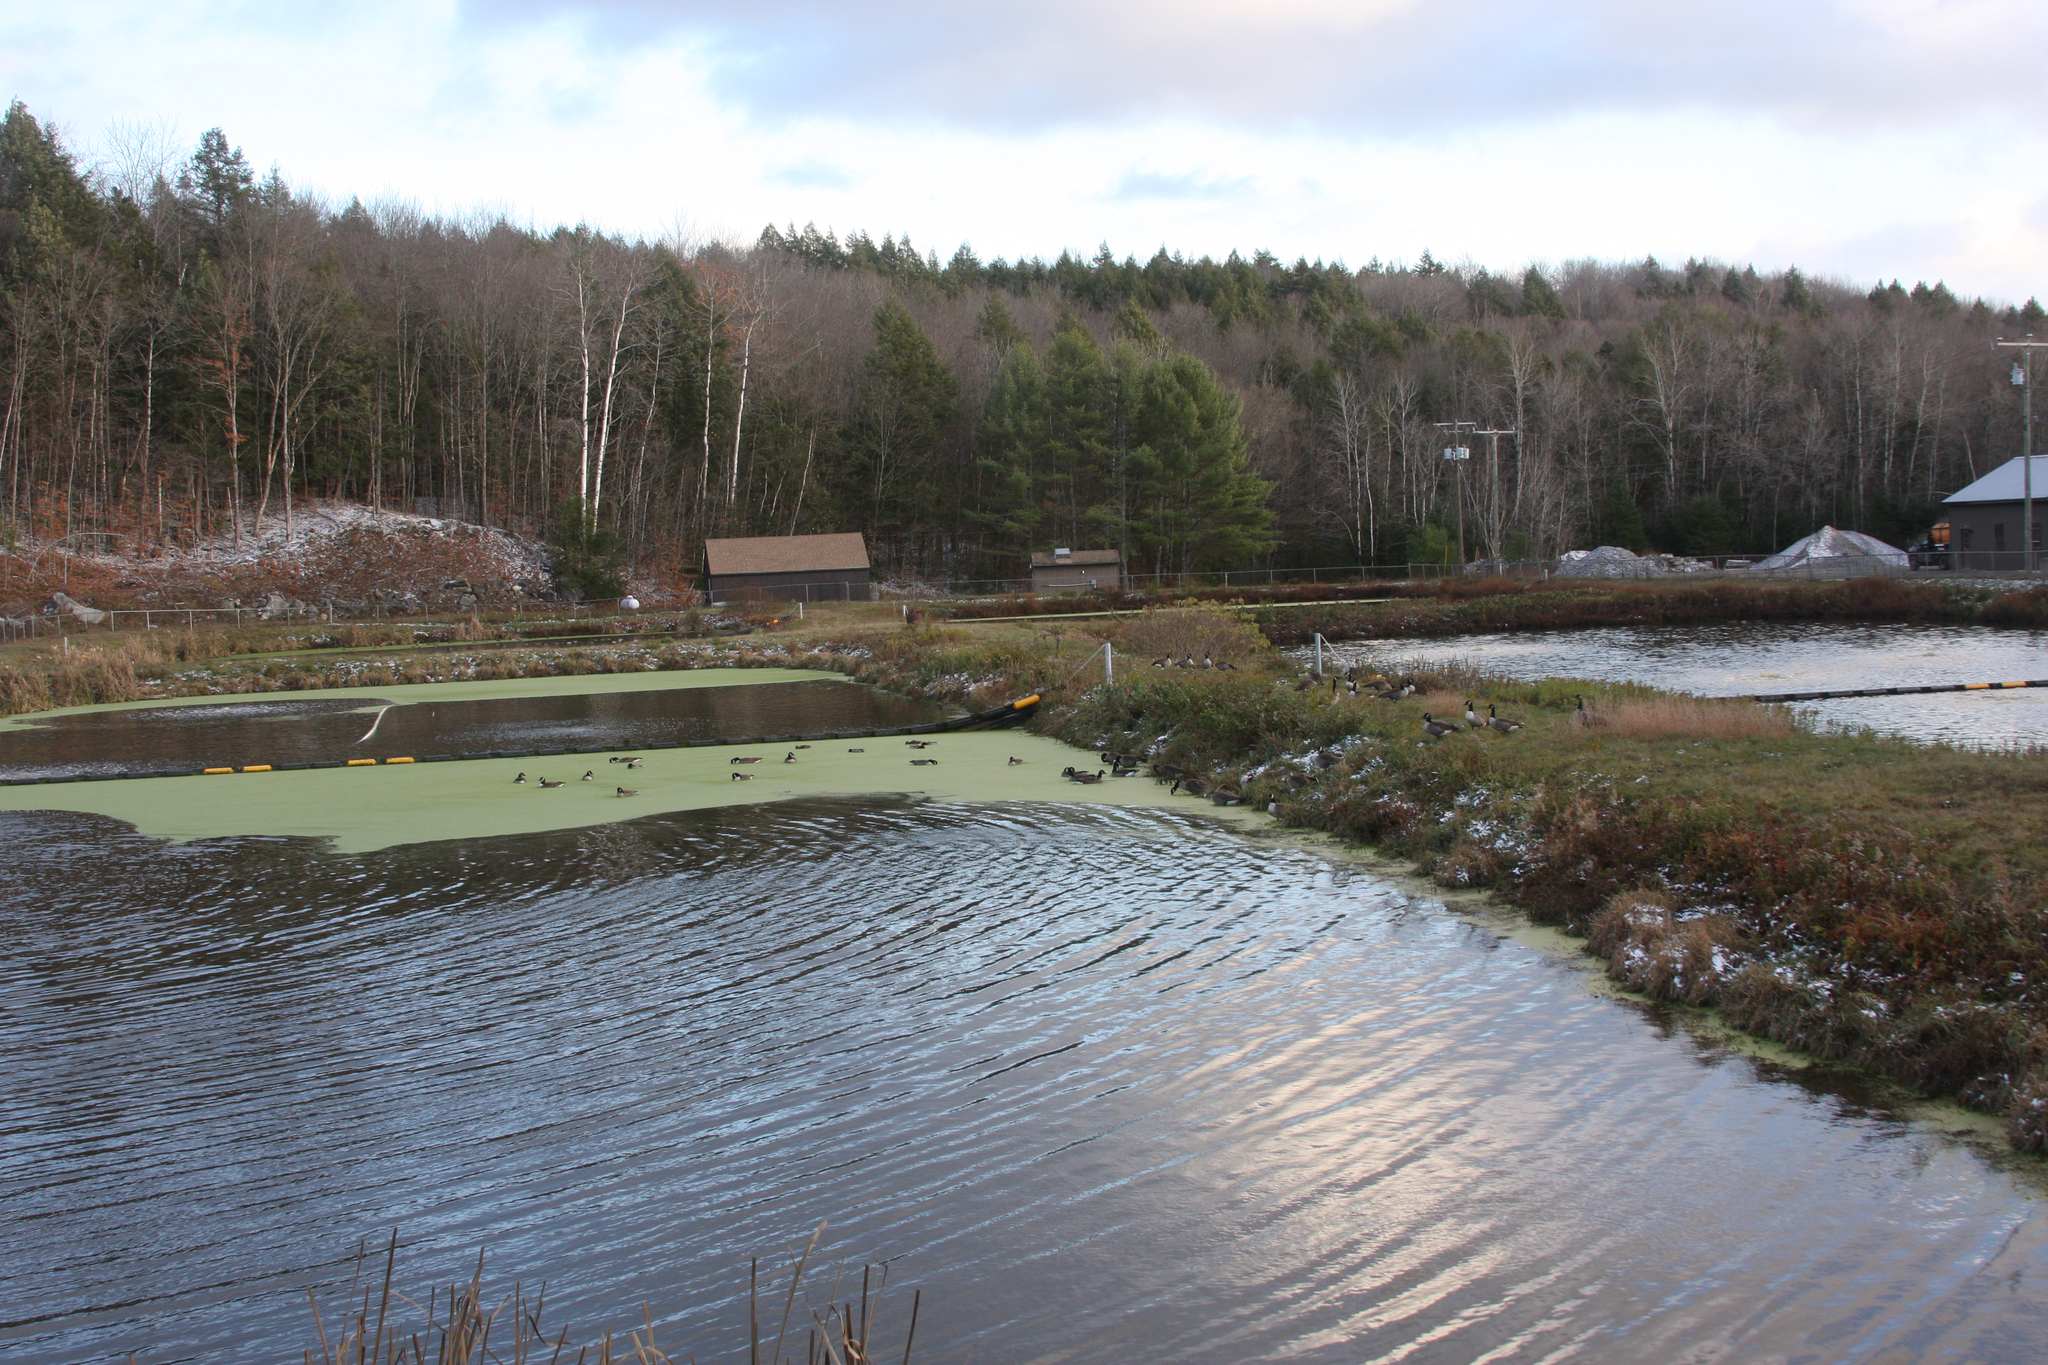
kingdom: Animalia
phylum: Chordata
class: Aves
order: Anseriformes
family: Anatidae
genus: Branta
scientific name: Branta canadensis
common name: Canada goose
